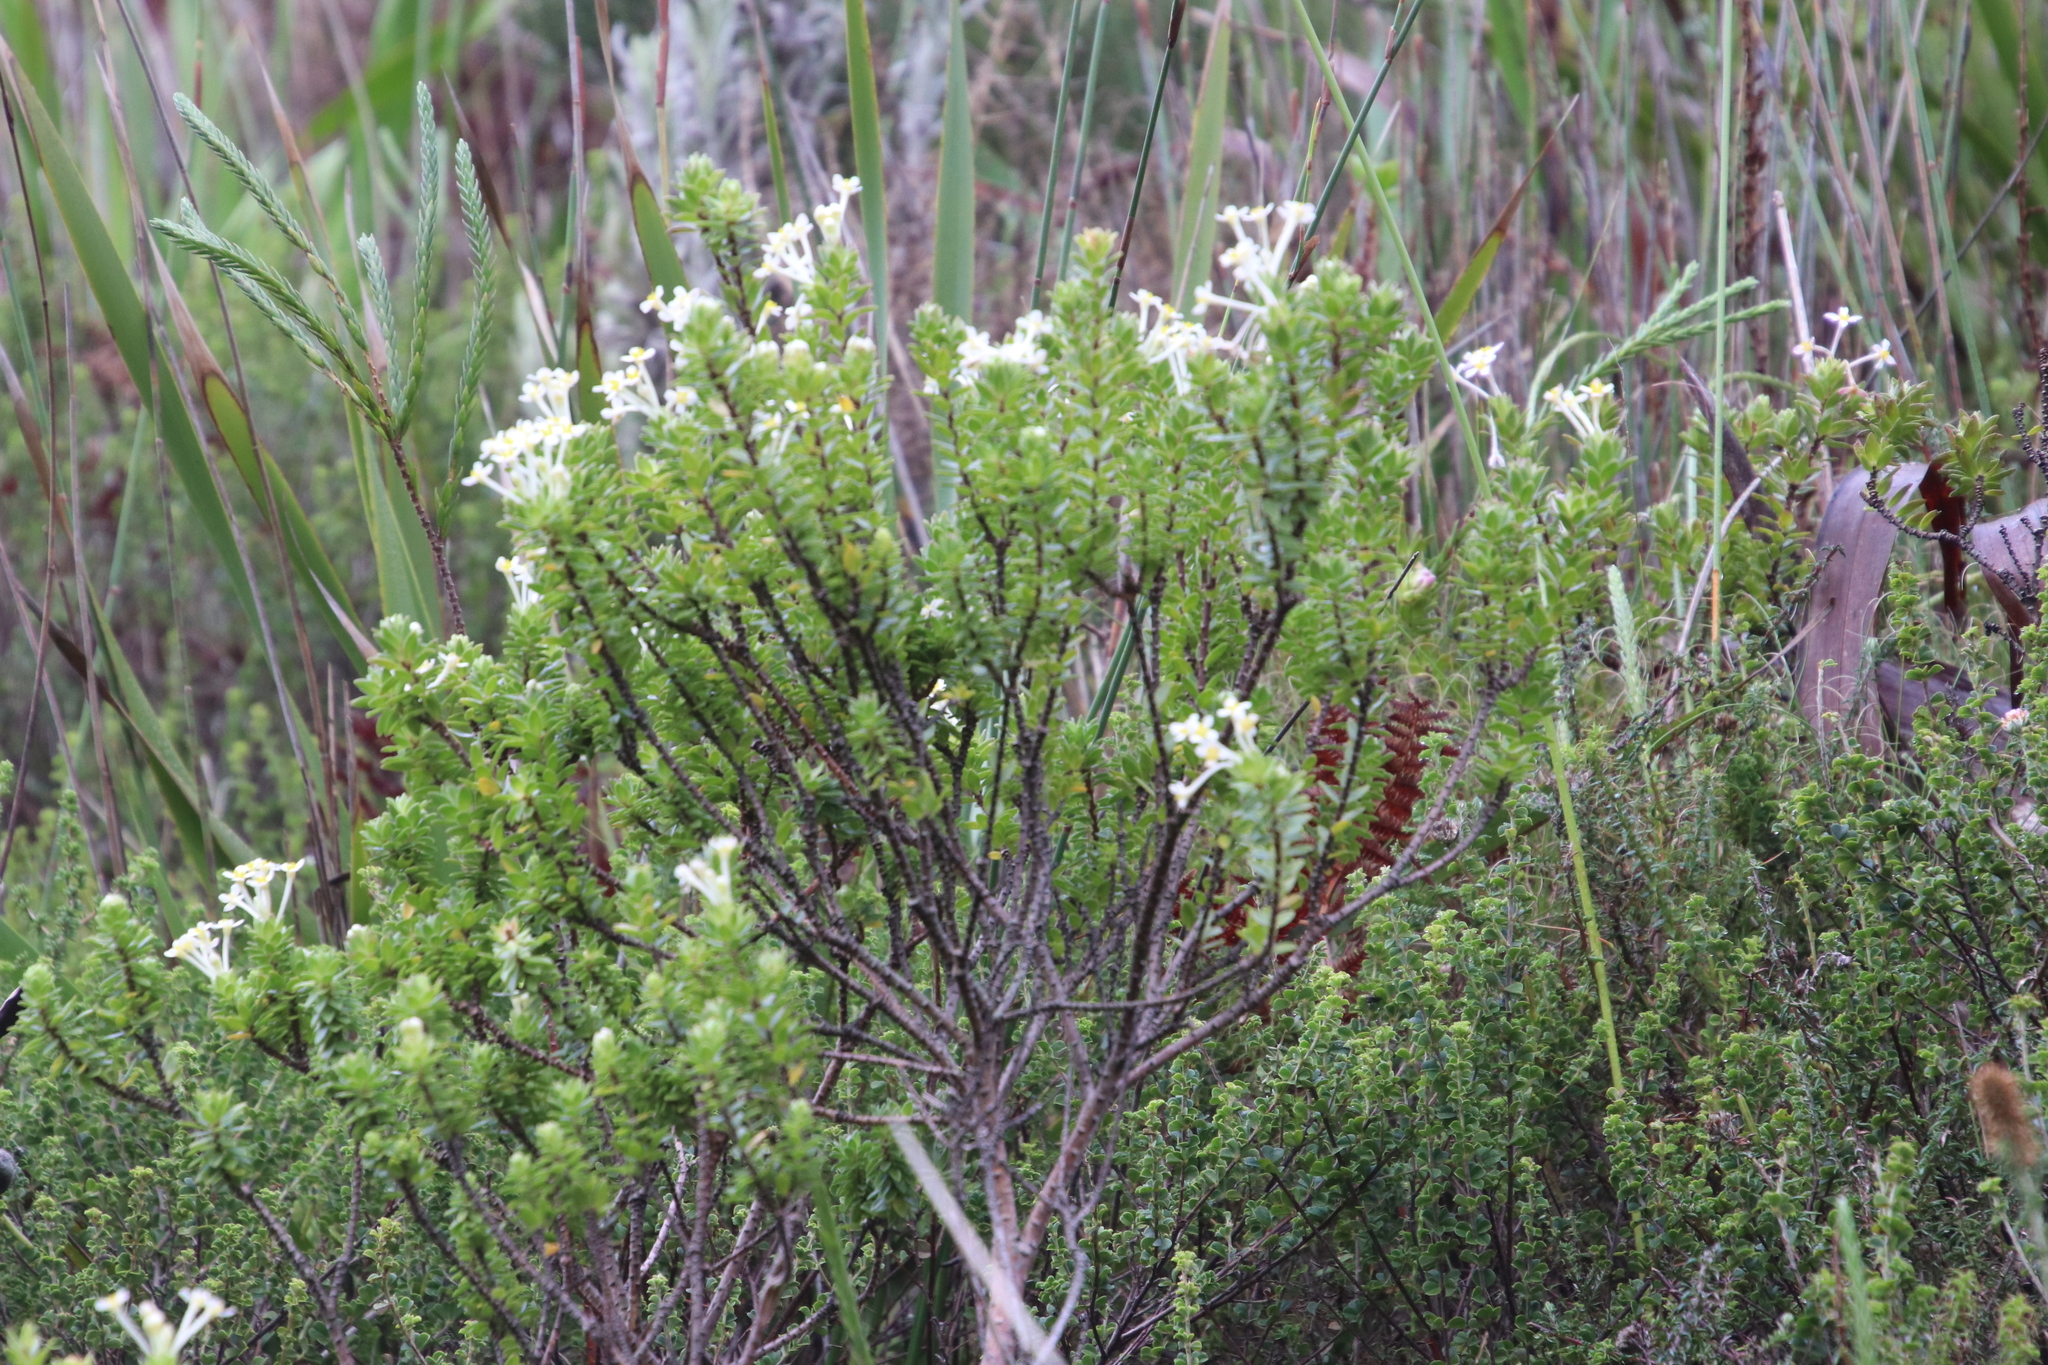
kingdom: Plantae
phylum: Tracheophyta
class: Magnoliopsida
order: Malvales
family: Thymelaeaceae
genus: Gnidia
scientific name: Gnidia tomentosa
